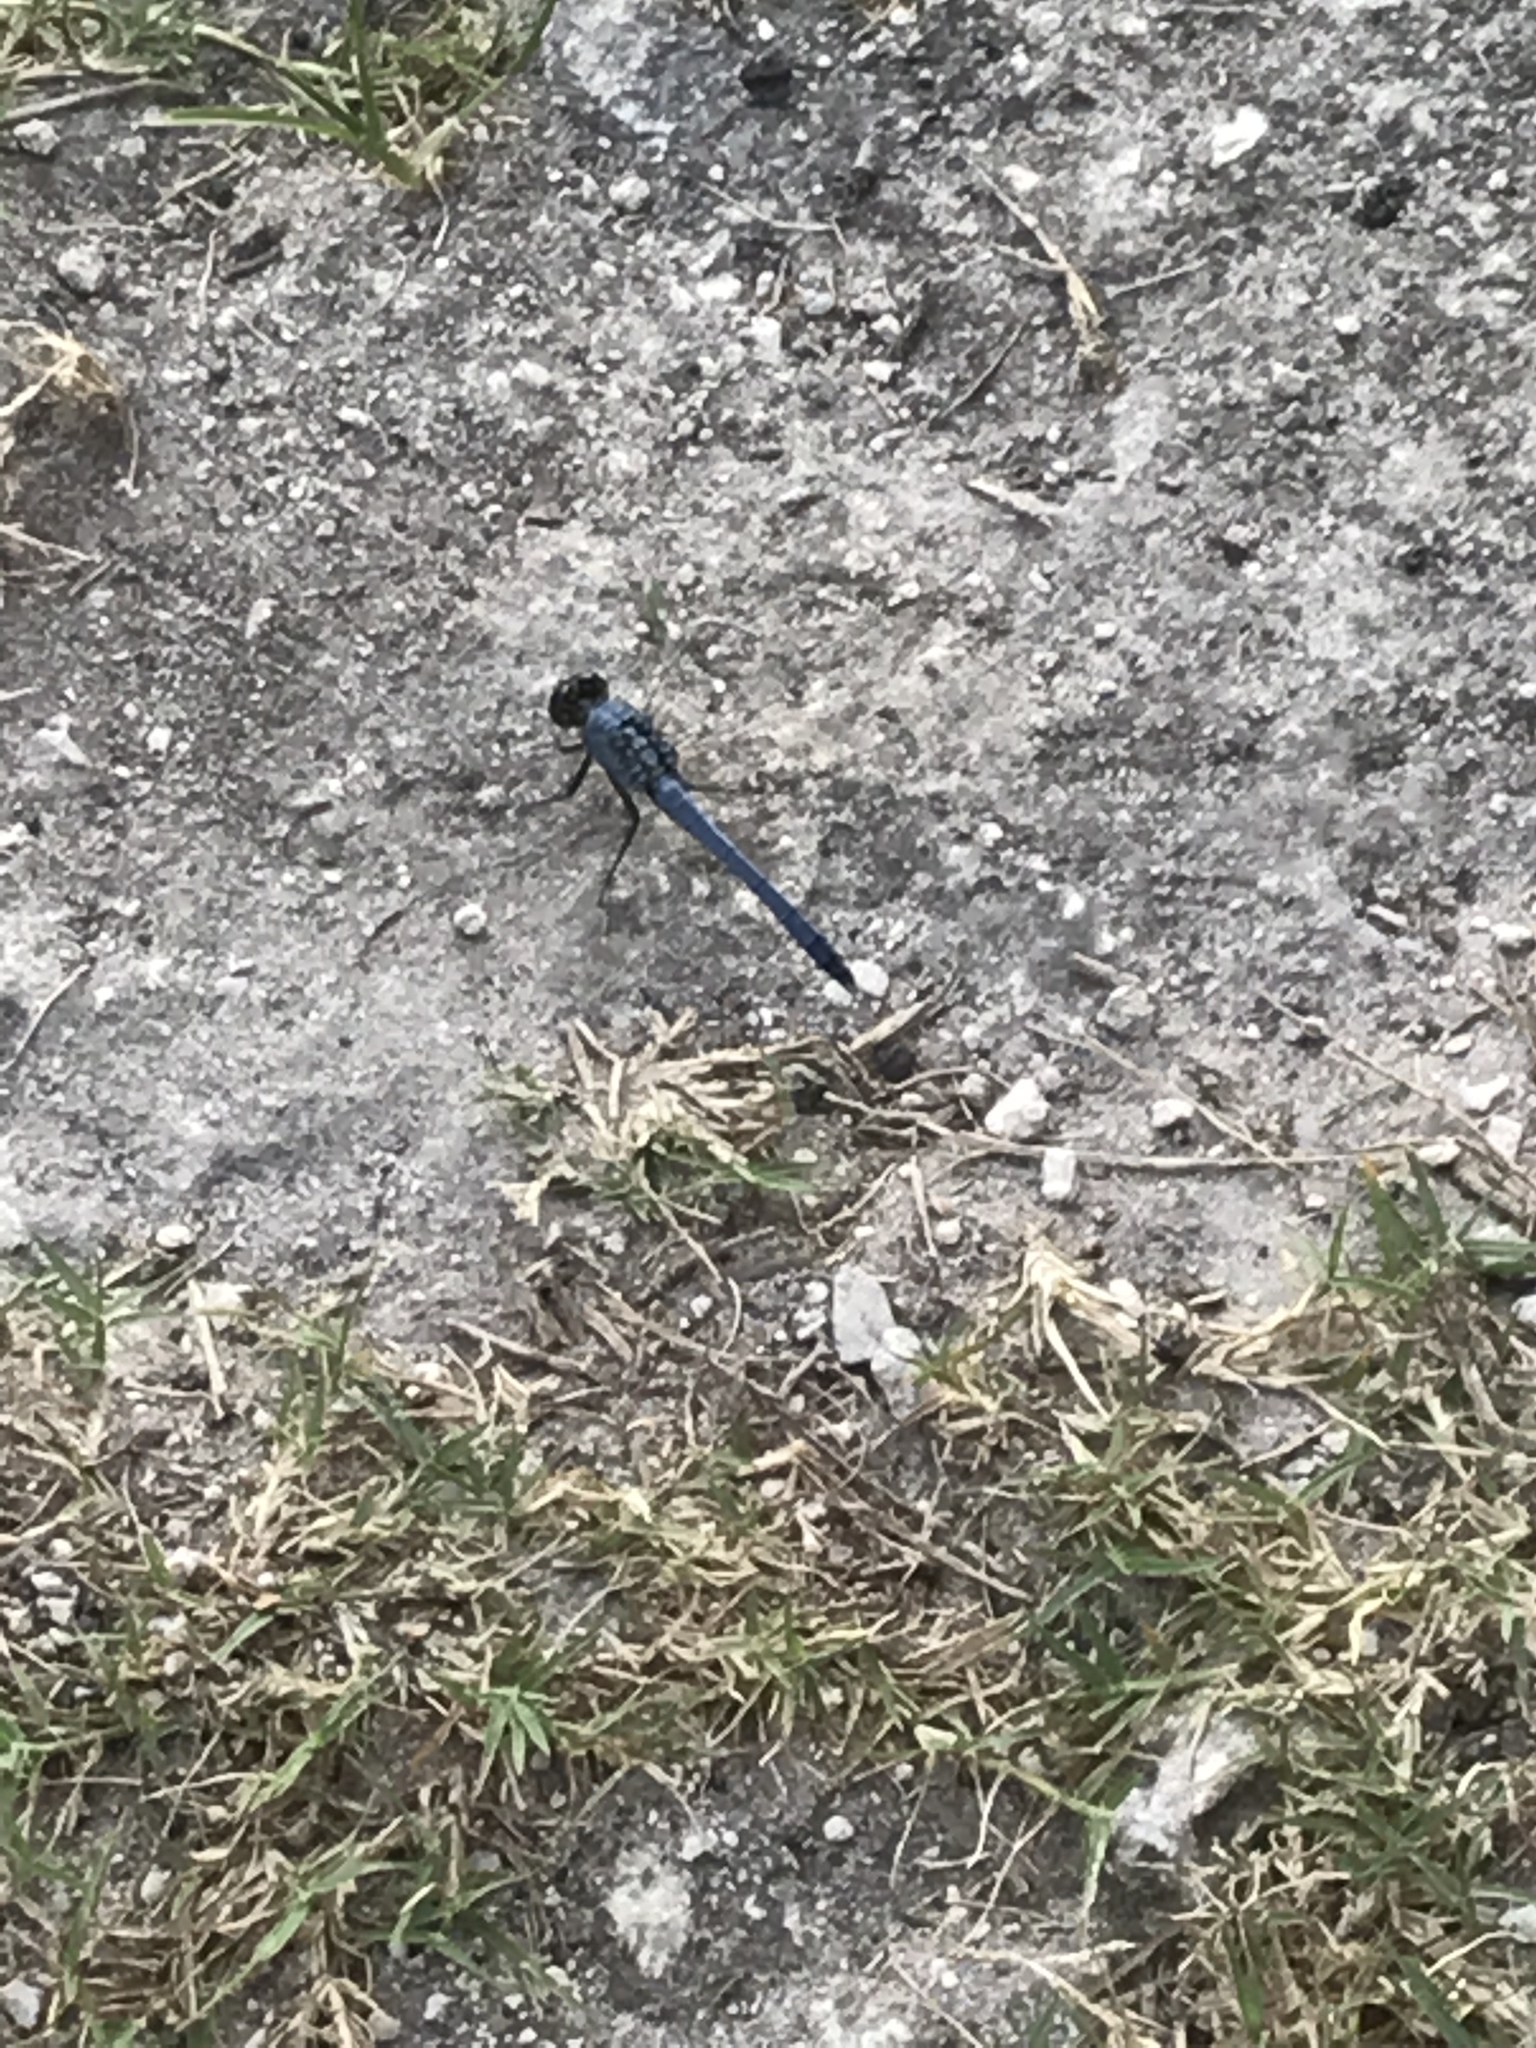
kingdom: Animalia
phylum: Arthropoda
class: Insecta
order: Odonata
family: Libellulidae
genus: Erythemis
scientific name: Erythemis simplicicollis
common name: Eastern pondhawk
